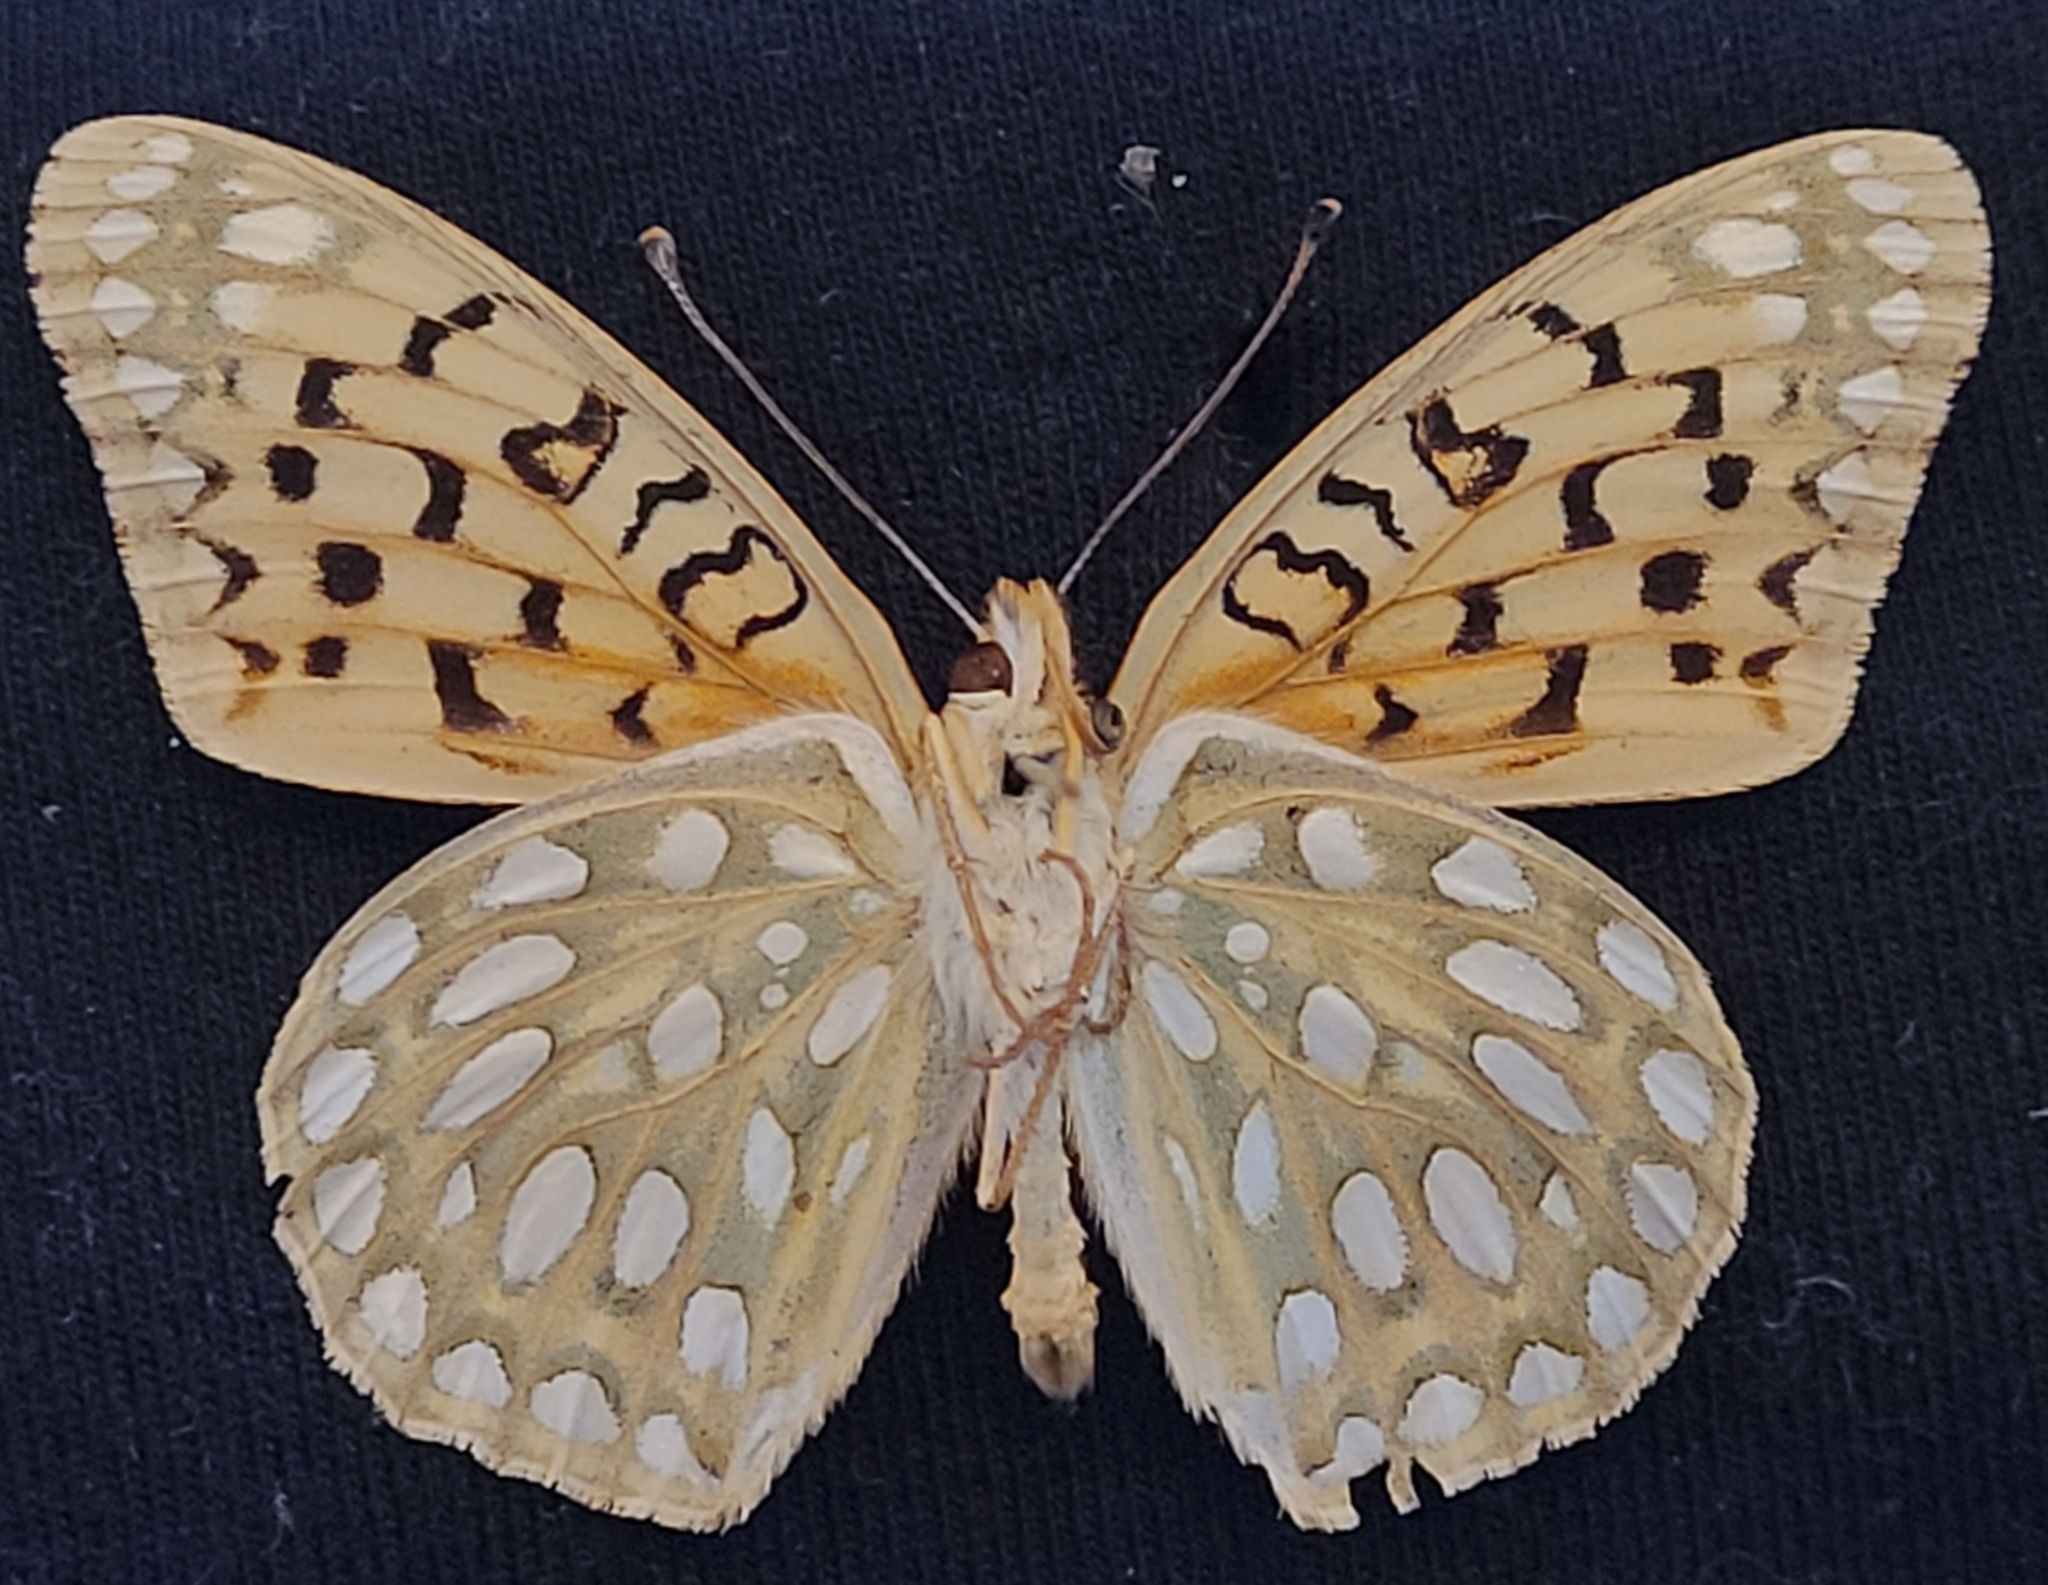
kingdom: Animalia
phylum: Arthropoda
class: Insecta
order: Lepidoptera
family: Nymphalidae
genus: Speyeria
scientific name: Speyeria callippe
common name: Callippe fritillary
